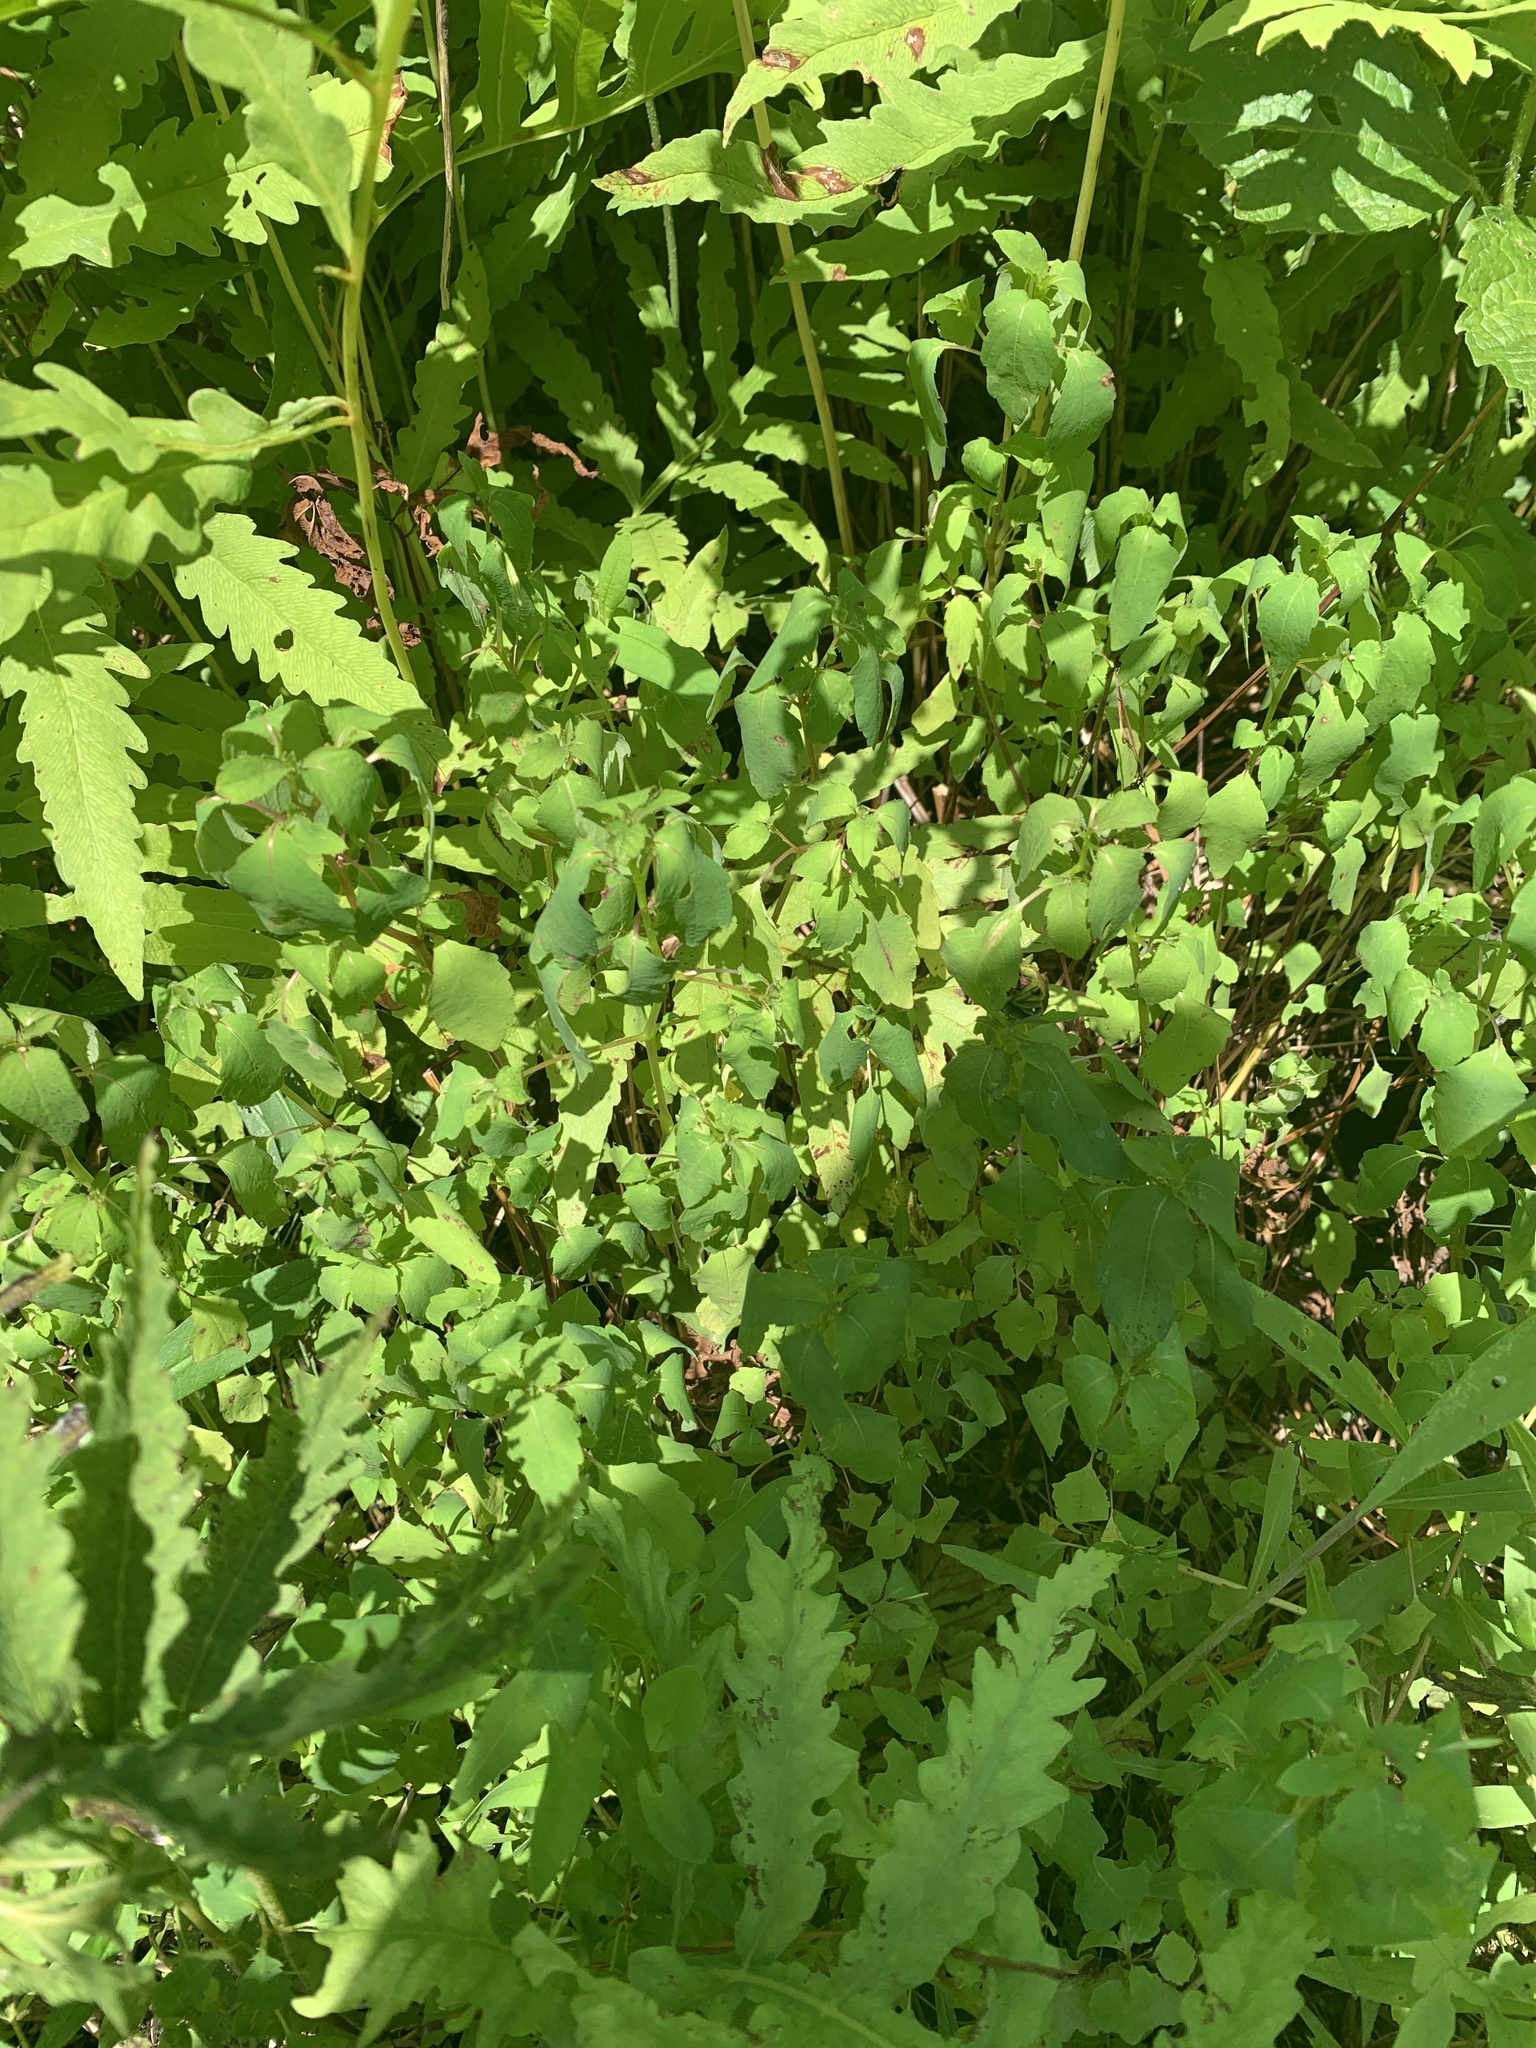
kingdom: Plantae
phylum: Tracheophyta
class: Magnoliopsida
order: Ericales
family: Balsaminaceae
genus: Impatiens
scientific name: Impatiens capensis
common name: Orange balsam
